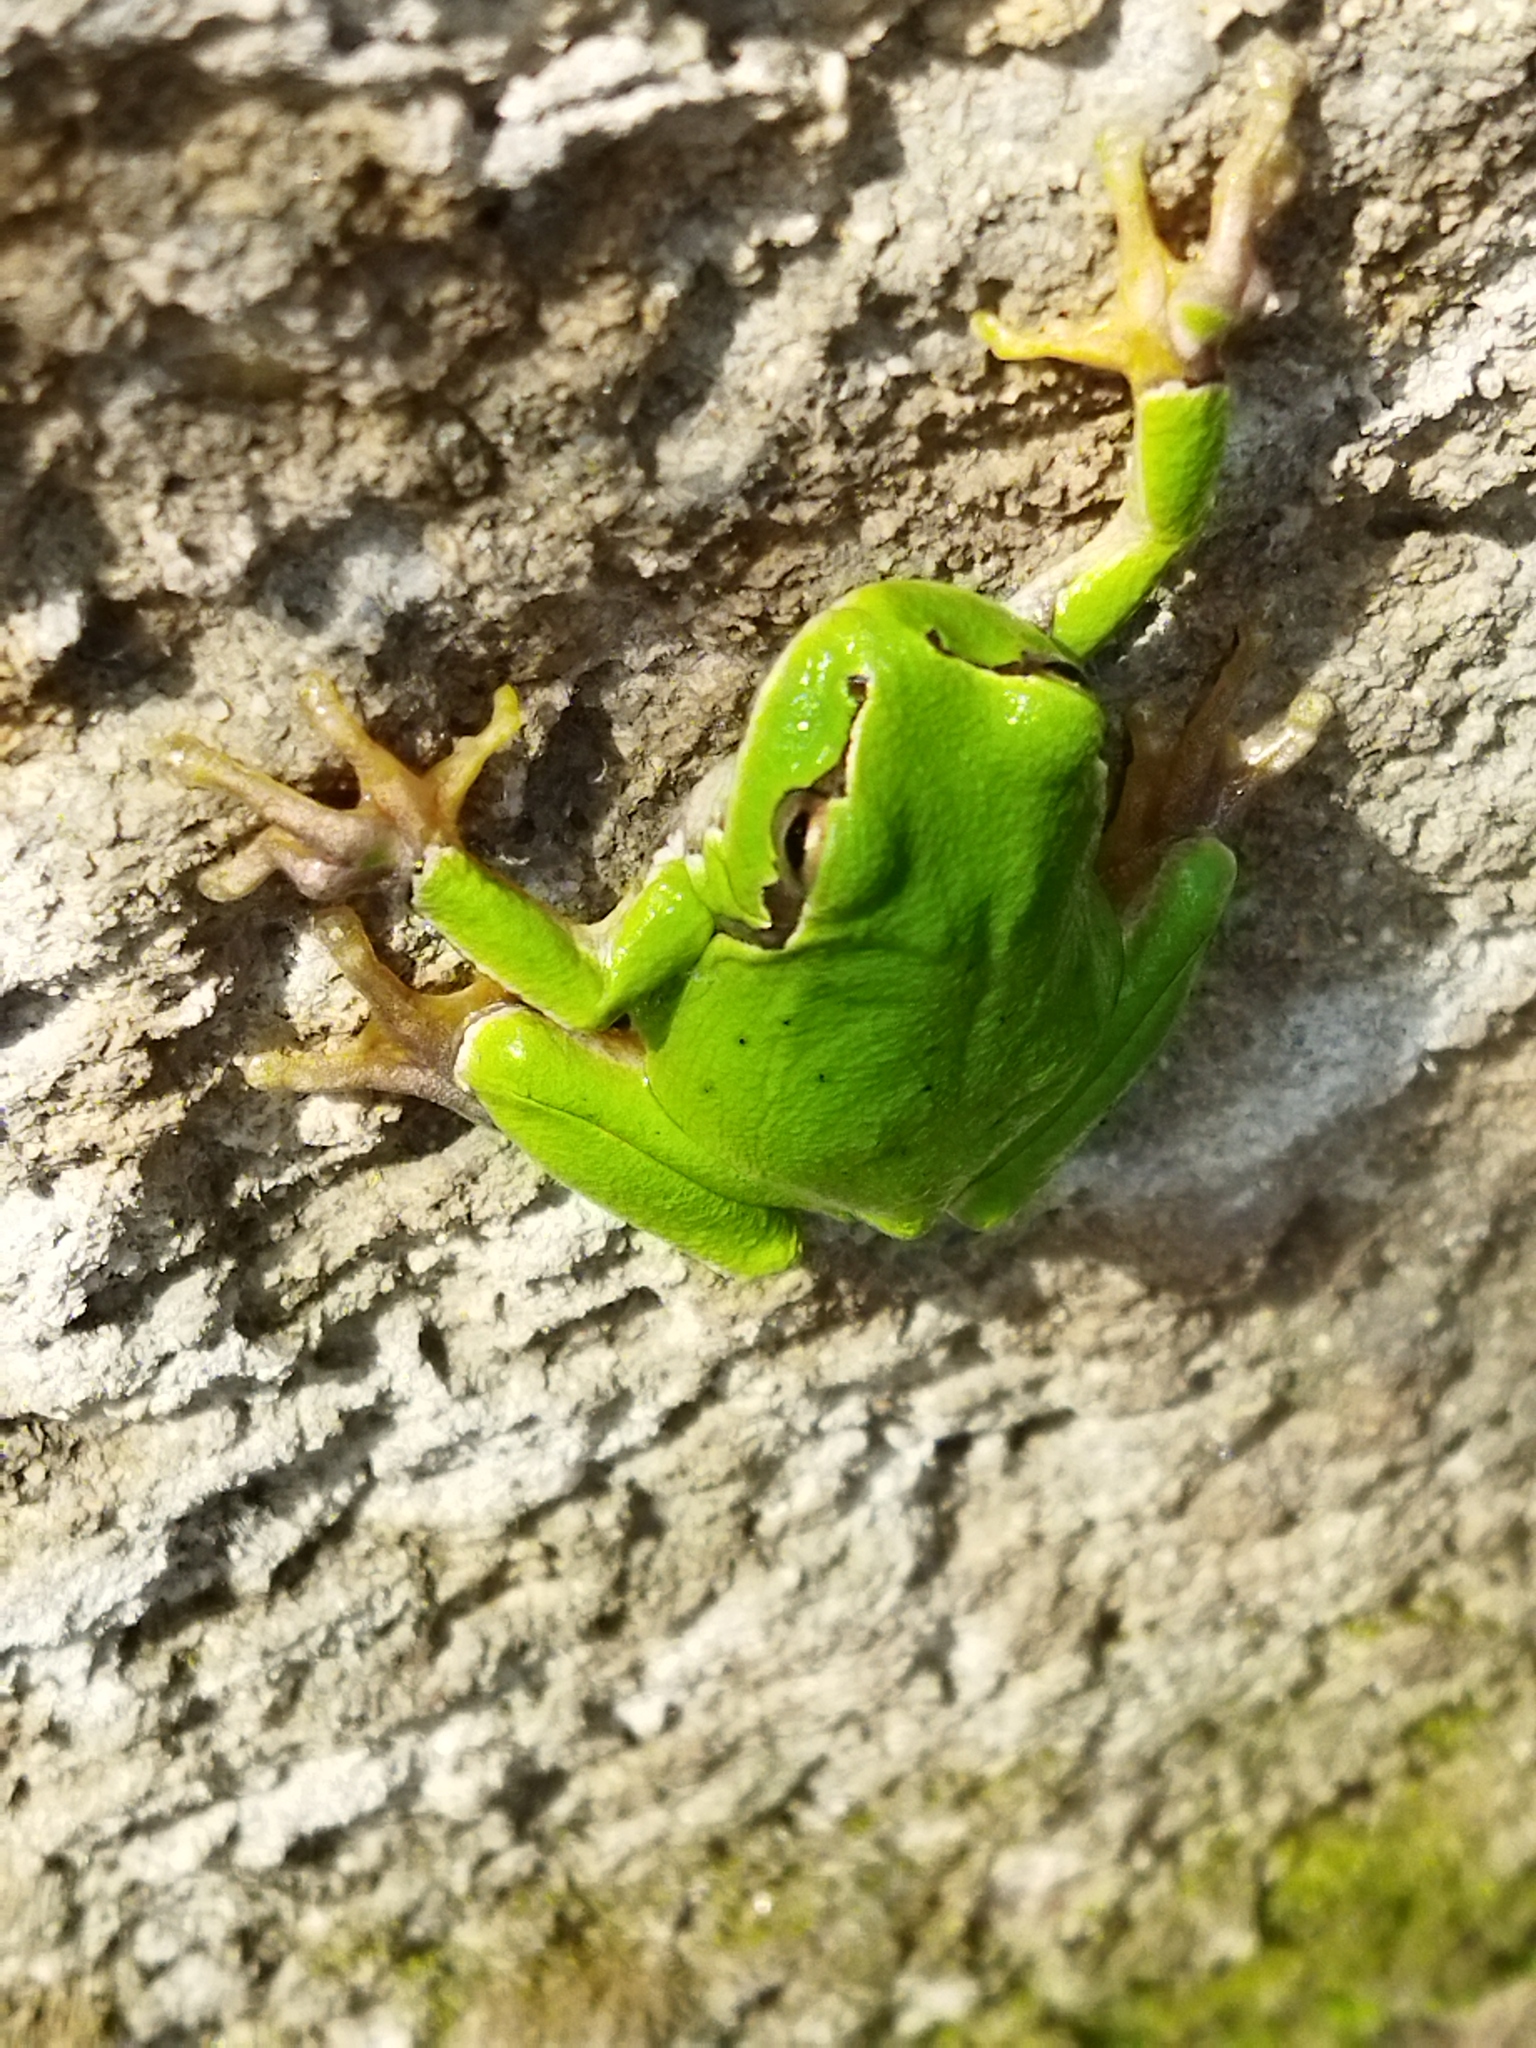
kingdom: Animalia
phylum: Chordata
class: Amphibia
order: Anura
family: Hylidae
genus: Hyla
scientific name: Hyla orientalis
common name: Caucasian treefrog
